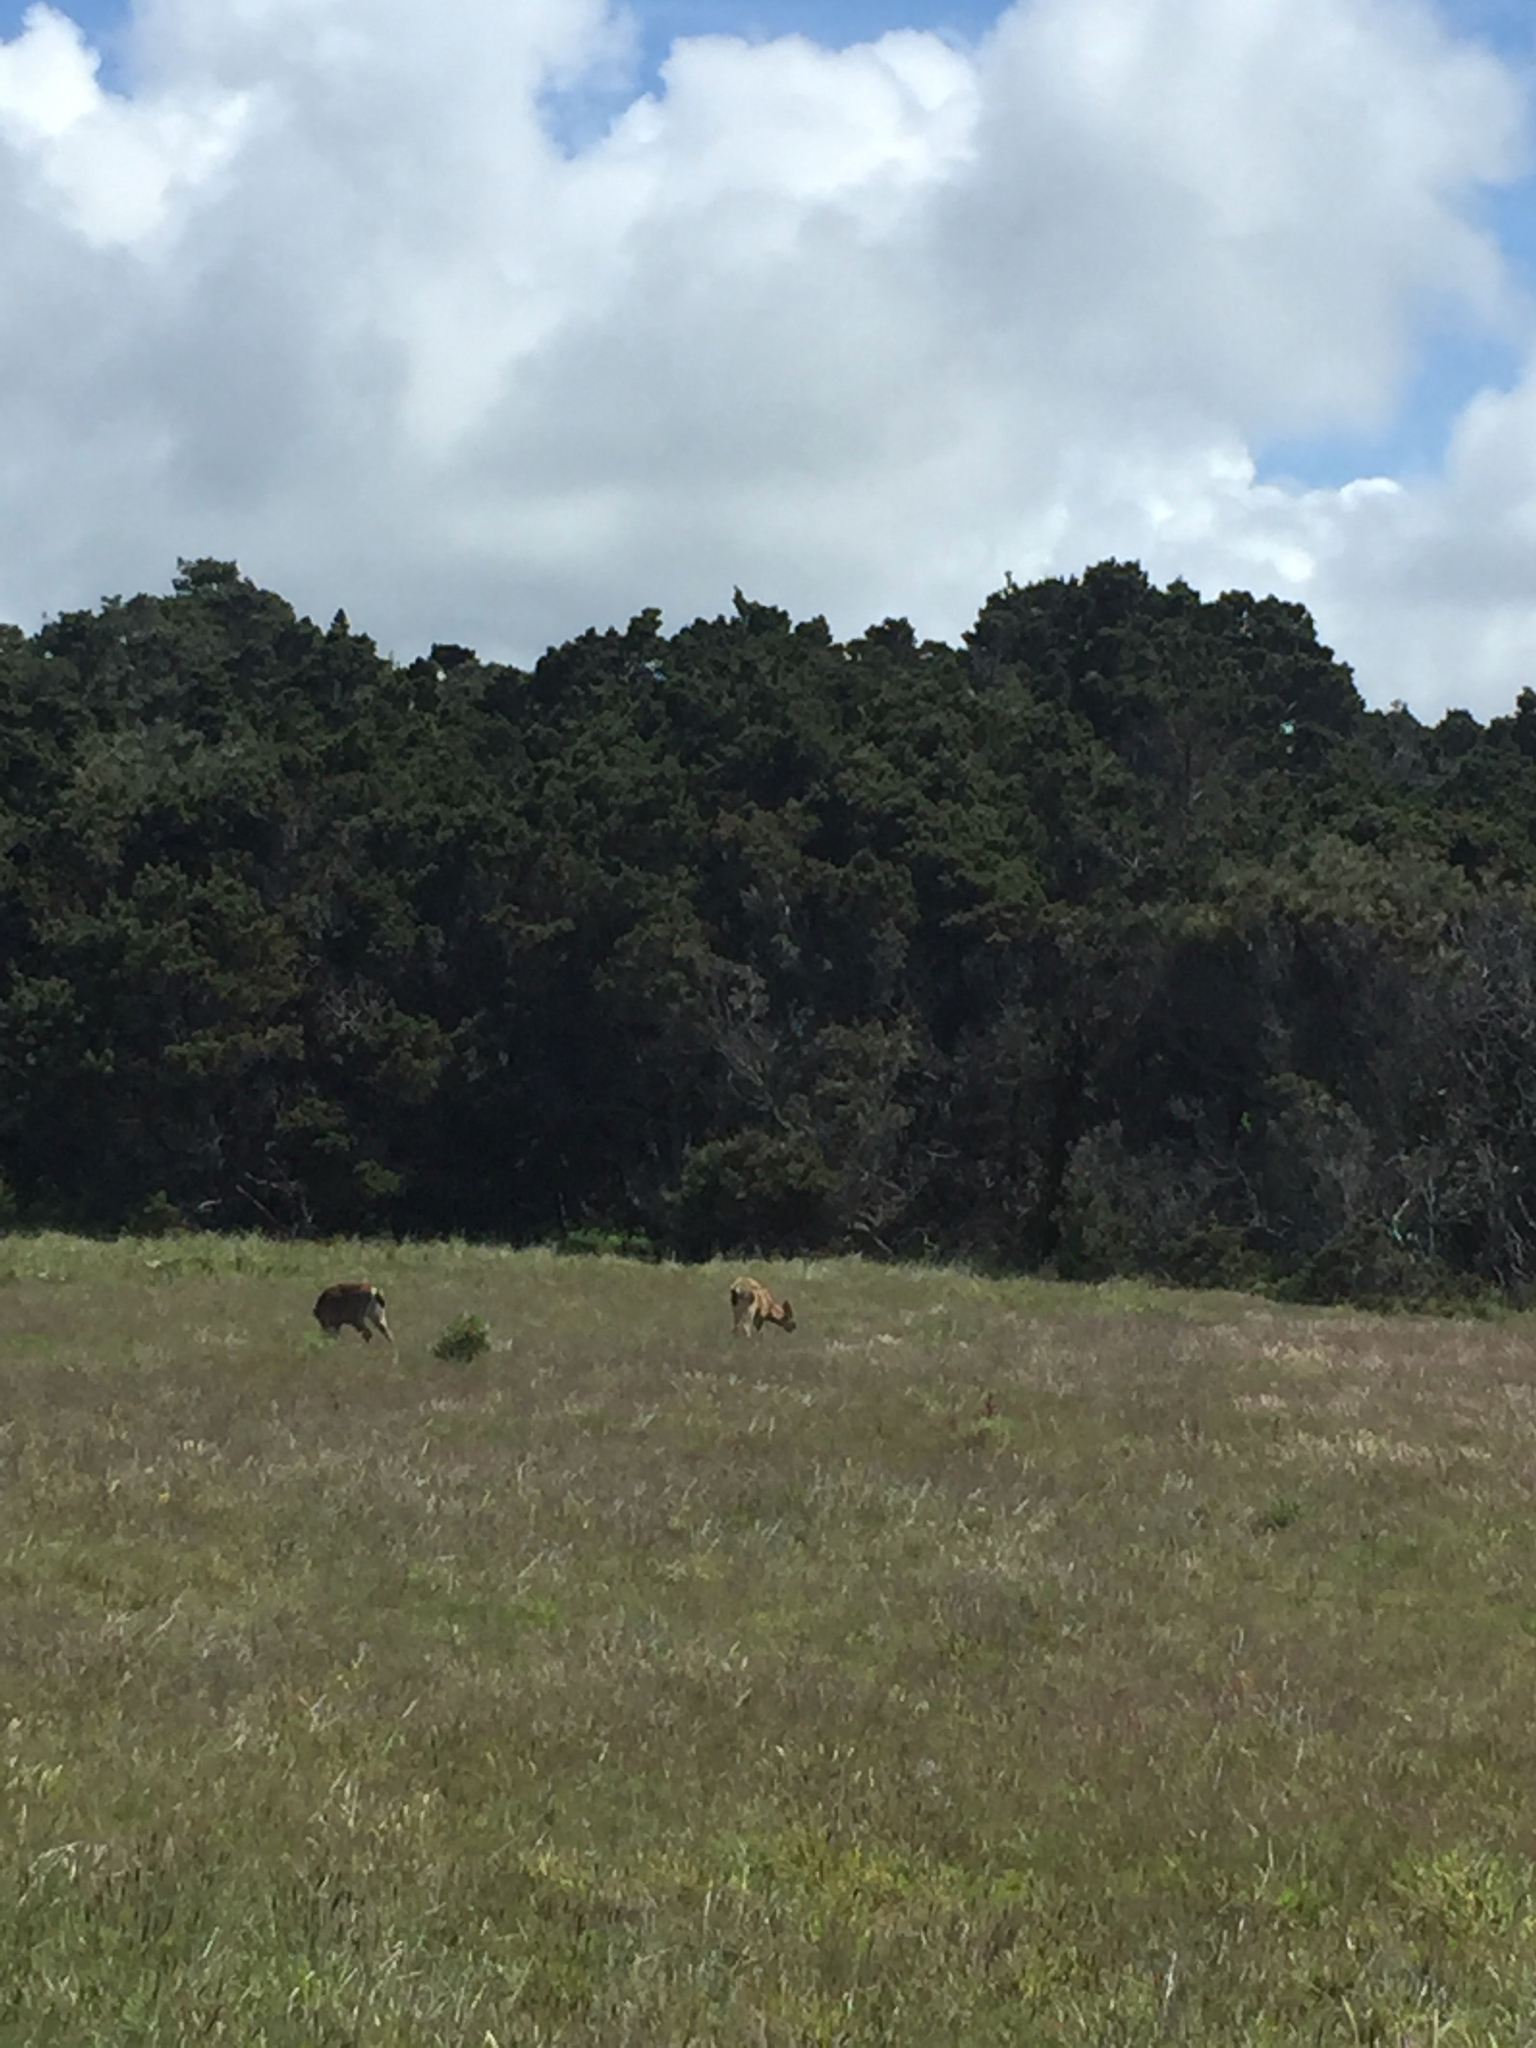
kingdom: Animalia
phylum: Chordata
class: Mammalia
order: Artiodactyla
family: Cervidae
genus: Odocoileus
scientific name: Odocoileus hemionus
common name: Mule deer
